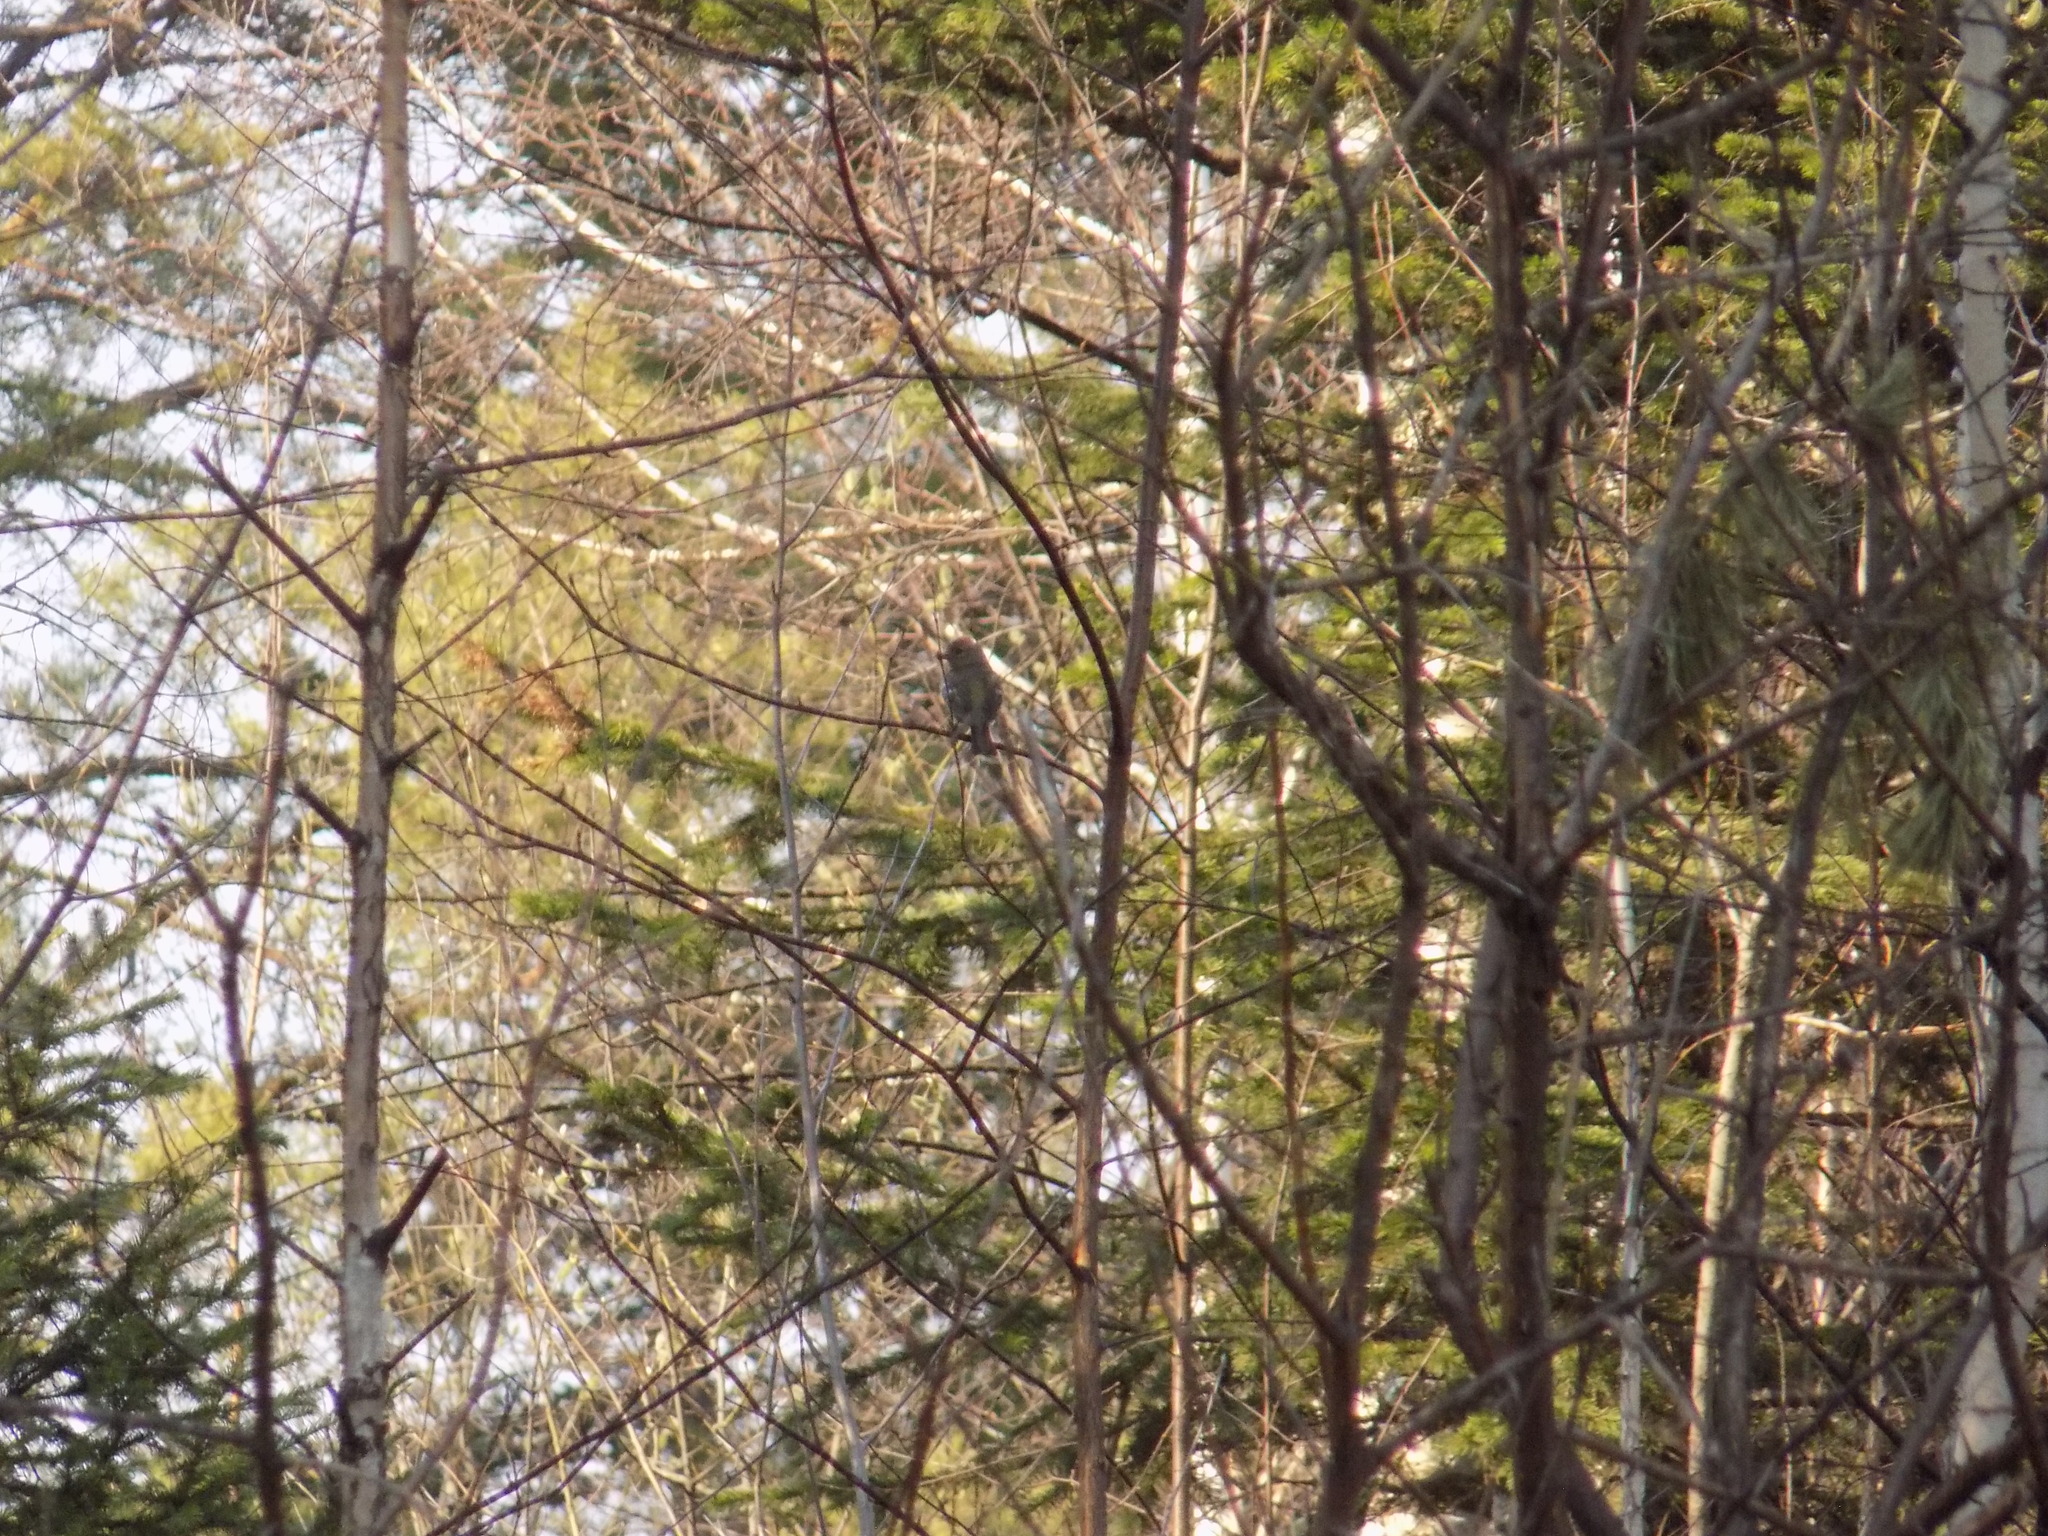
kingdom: Animalia
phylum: Chordata
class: Aves
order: Passeriformes
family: Fringillidae
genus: Fringilla
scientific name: Fringilla coelebs
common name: Common chaffinch
